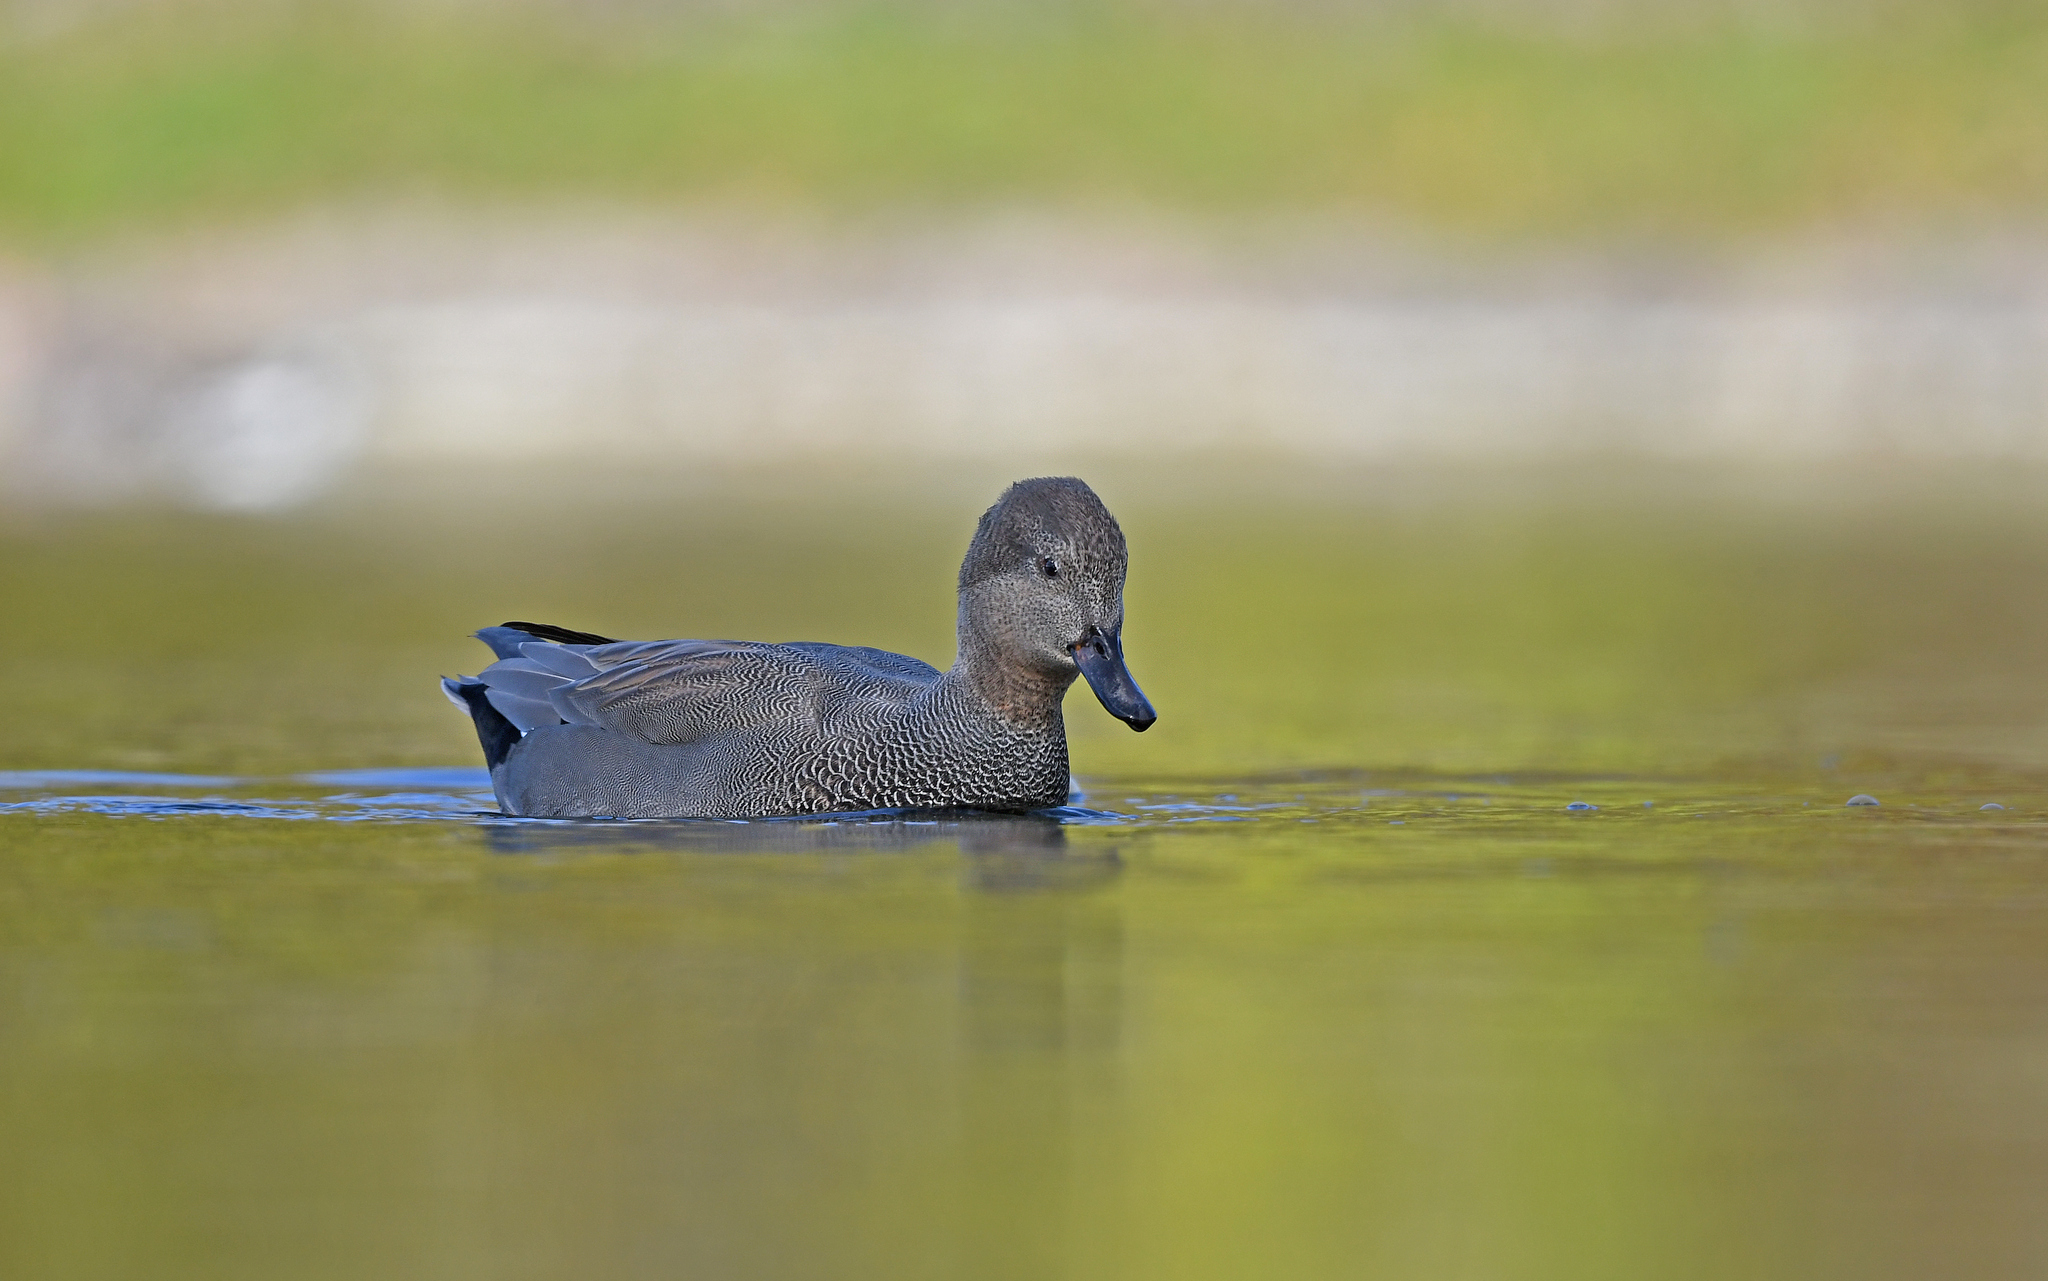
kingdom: Animalia
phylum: Chordata
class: Aves
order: Anseriformes
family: Anatidae
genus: Mareca
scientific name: Mareca strepera
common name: Gadwall
